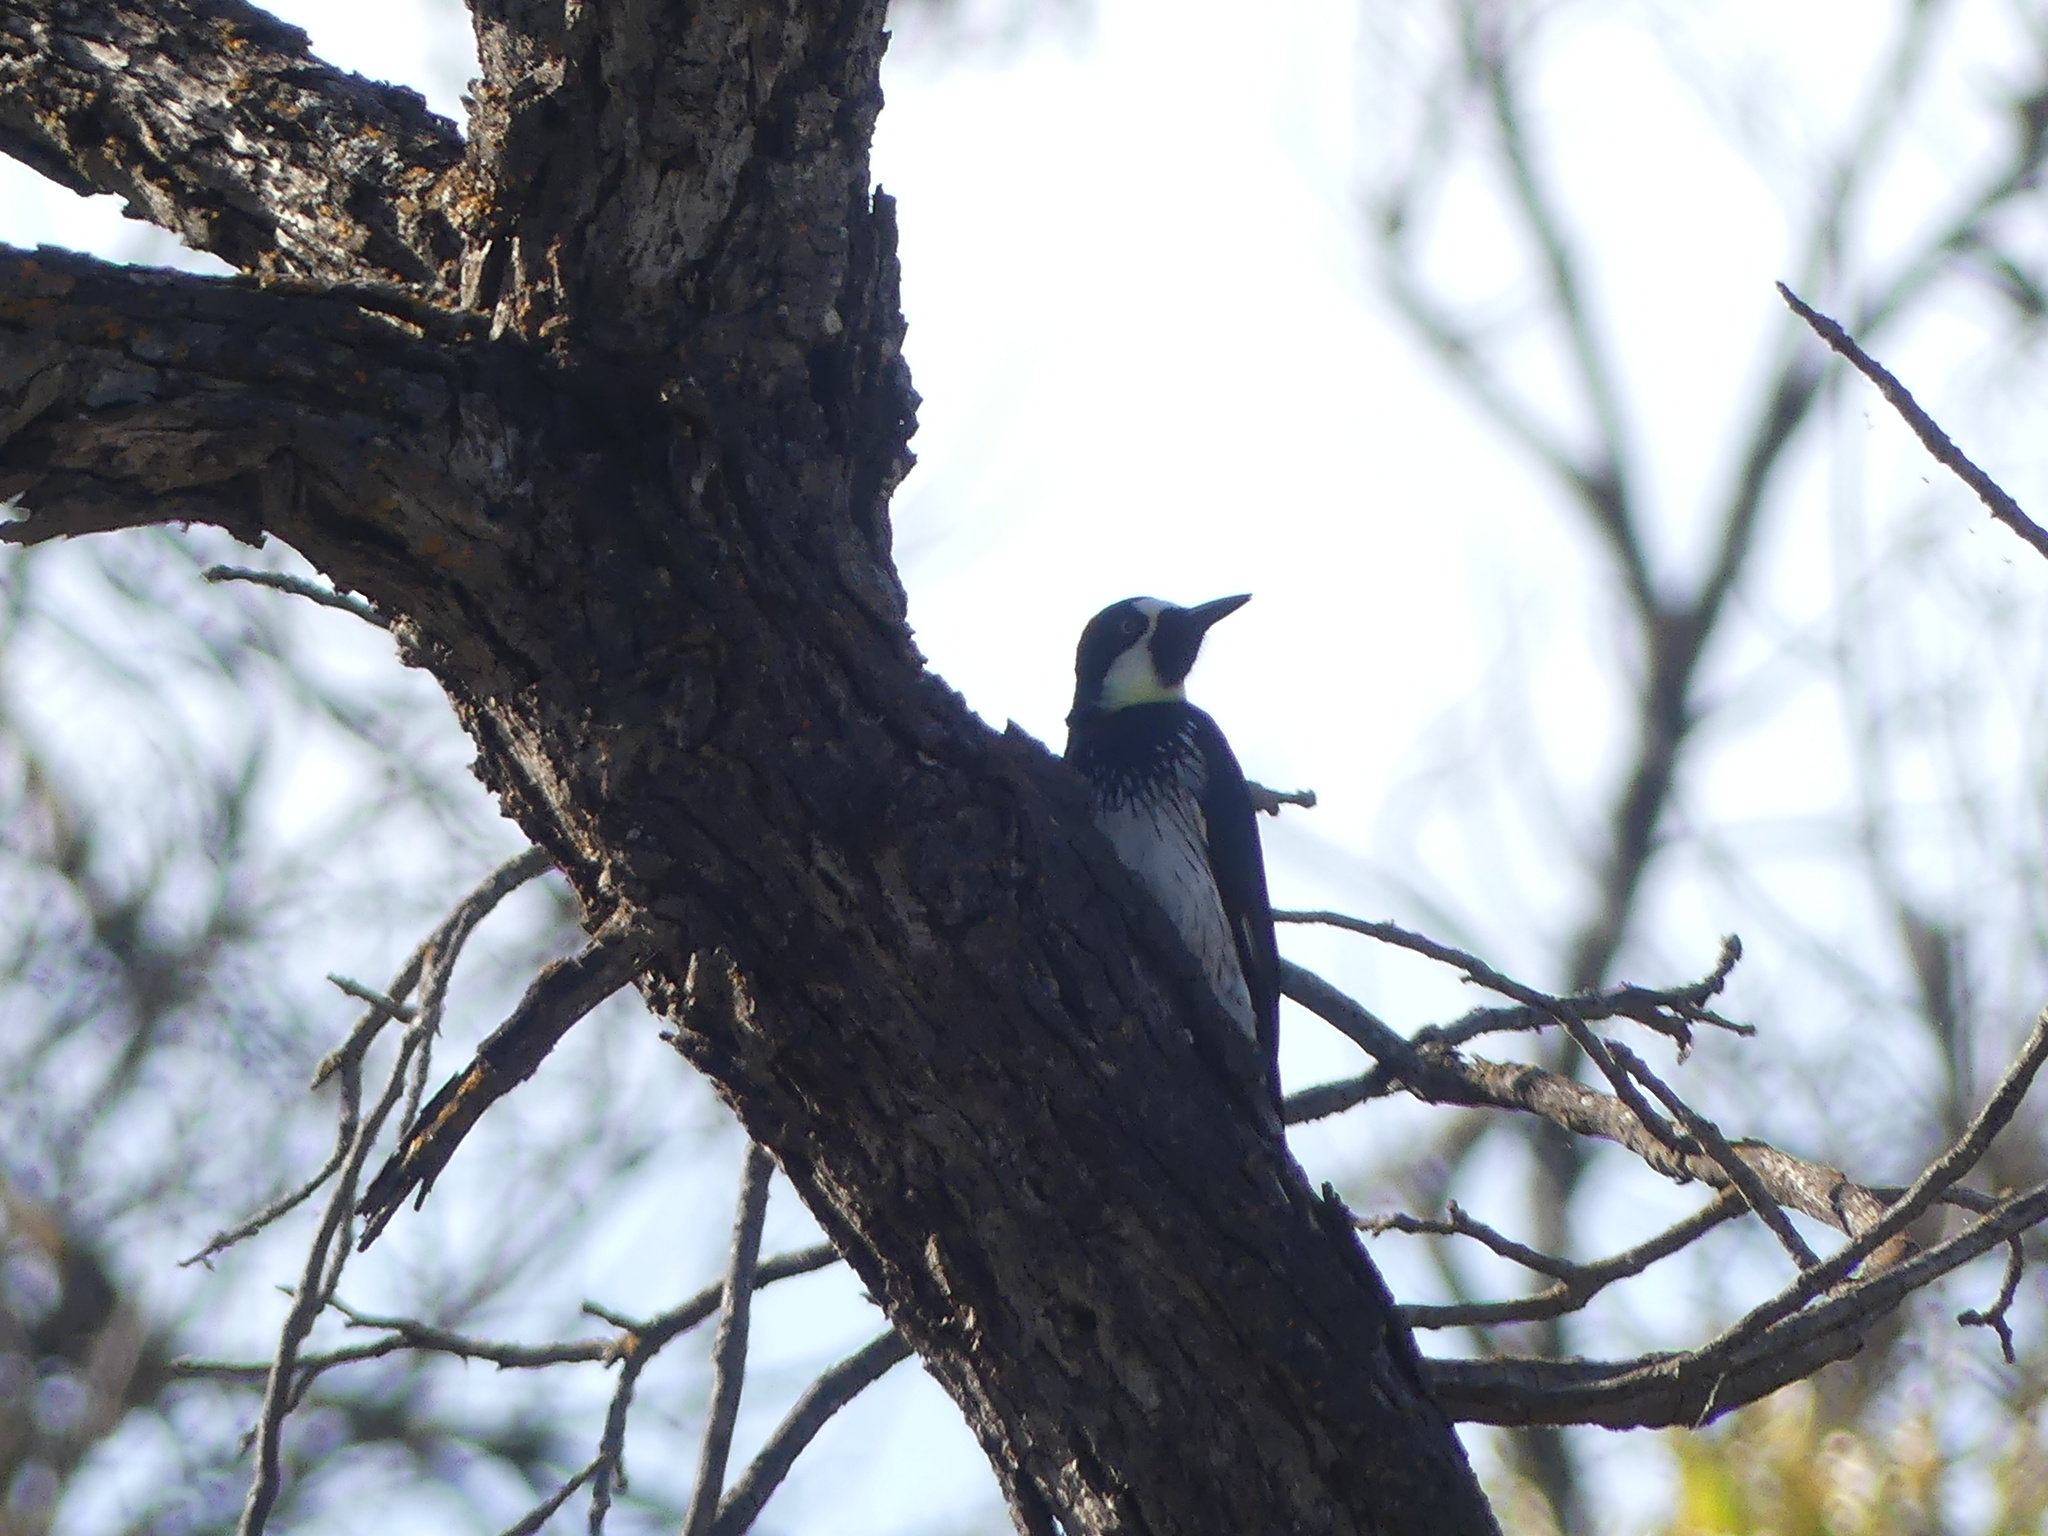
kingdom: Animalia
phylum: Chordata
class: Aves
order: Piciformes
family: Picidae
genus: Melanerpes
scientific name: Melanerpes formicivorus
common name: Acorn woodpecker
